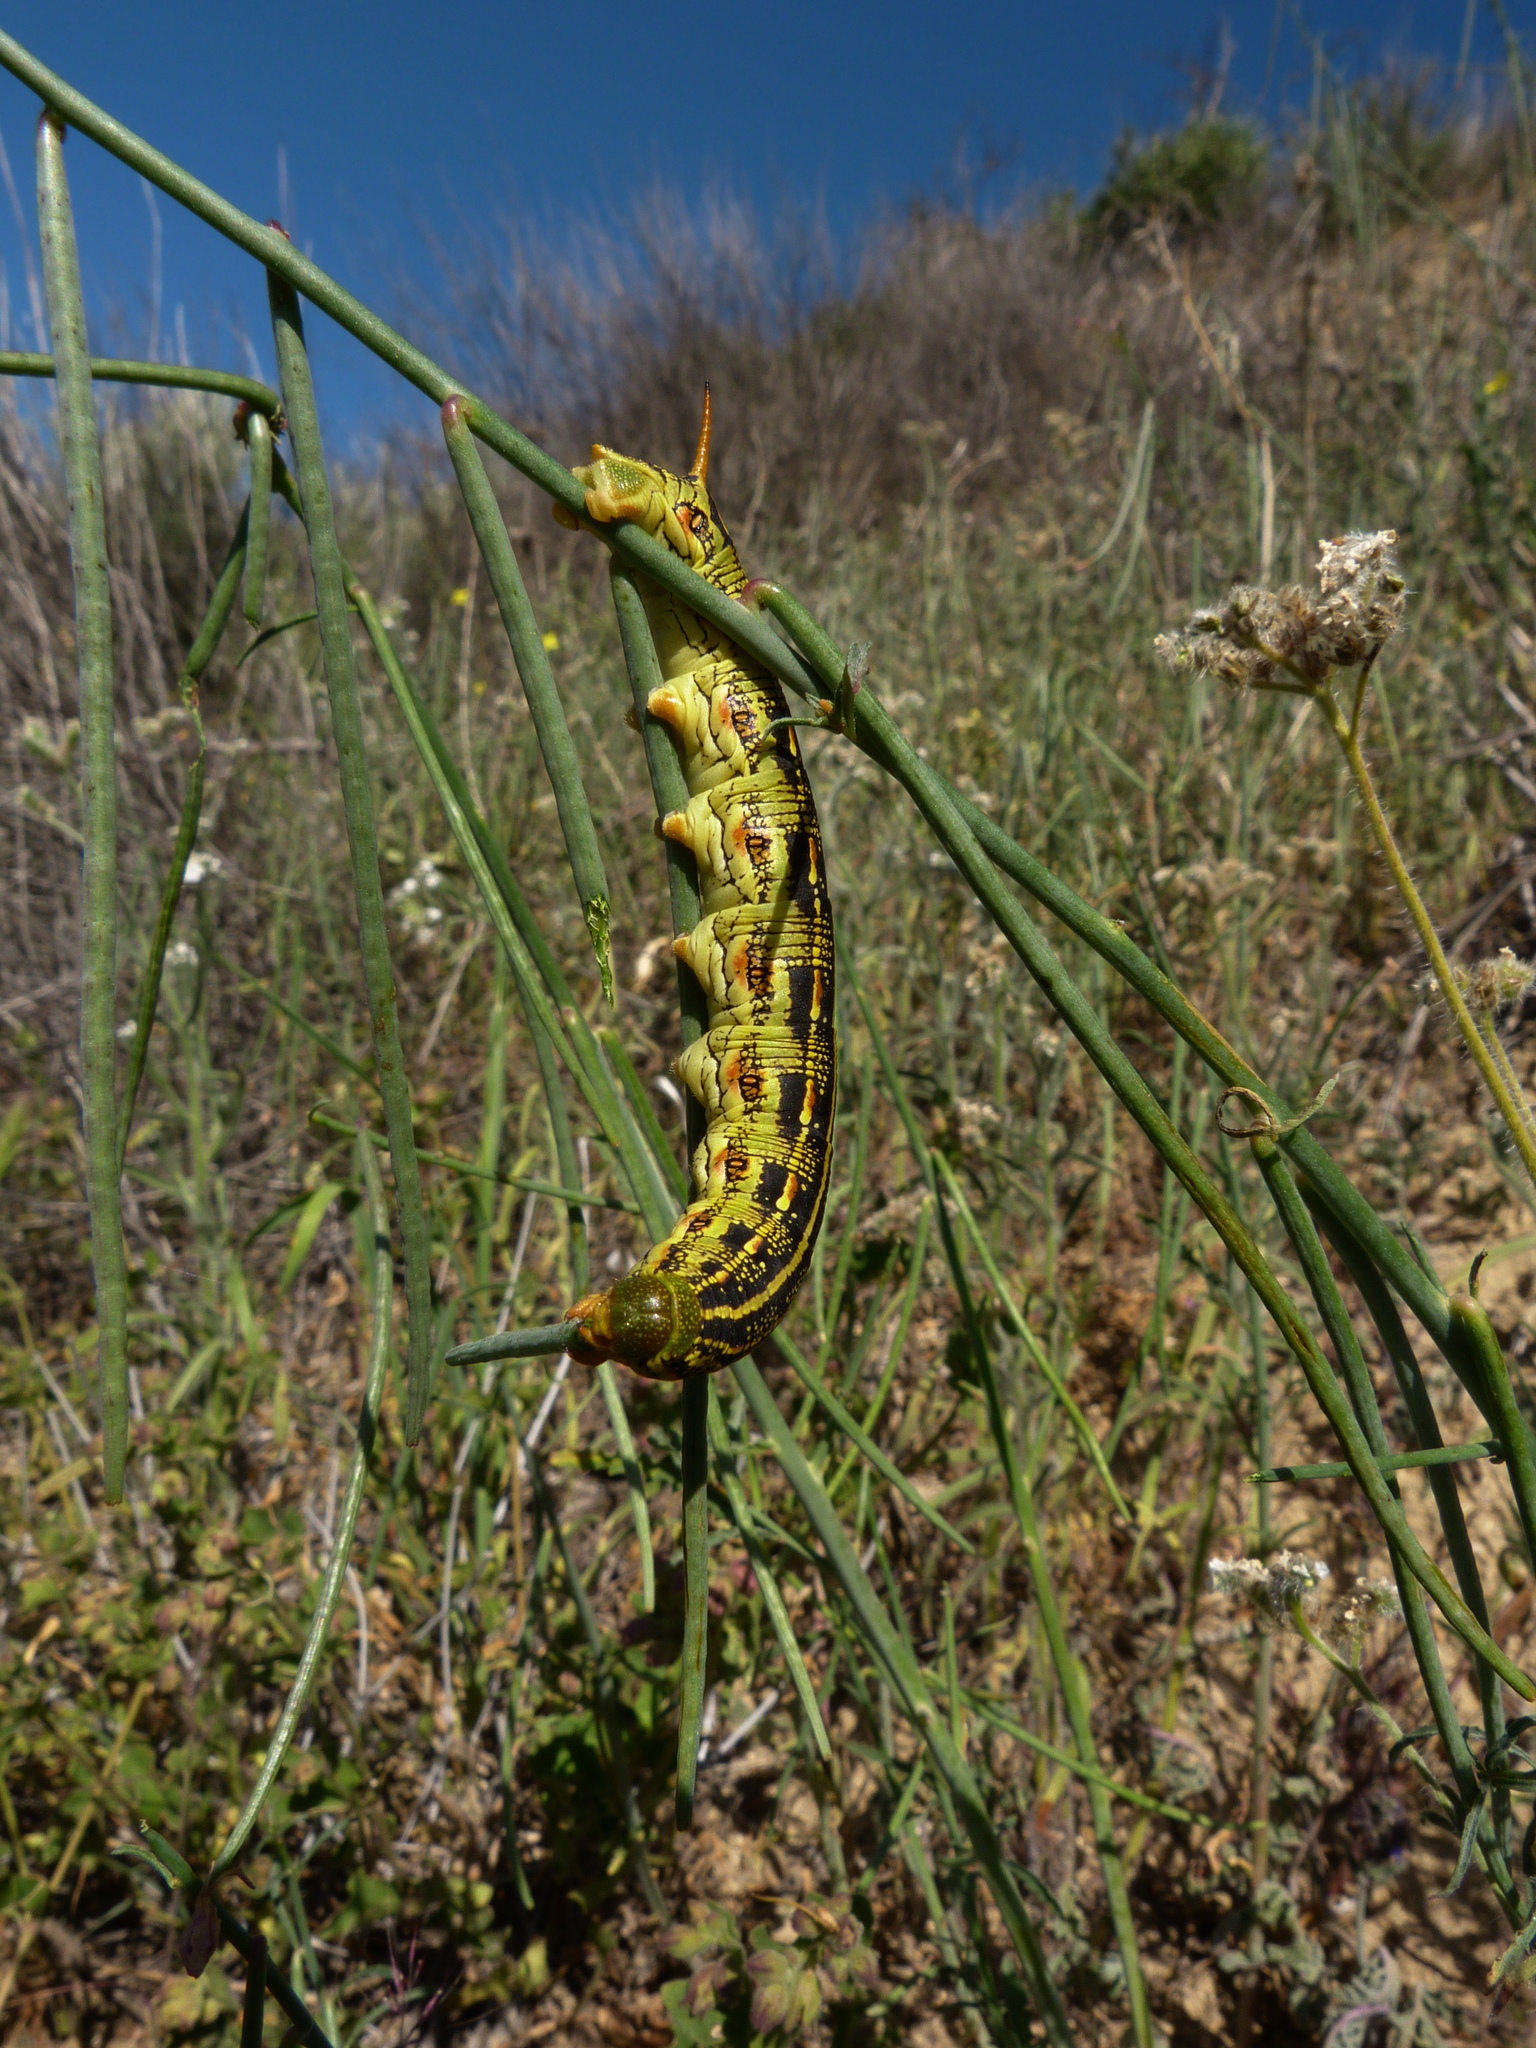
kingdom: Animalia
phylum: Arthropoda
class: Insecta
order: Lepidoptera
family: Sphingidae
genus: Hyles
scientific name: Hyles lineata
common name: White-lined sphinx
